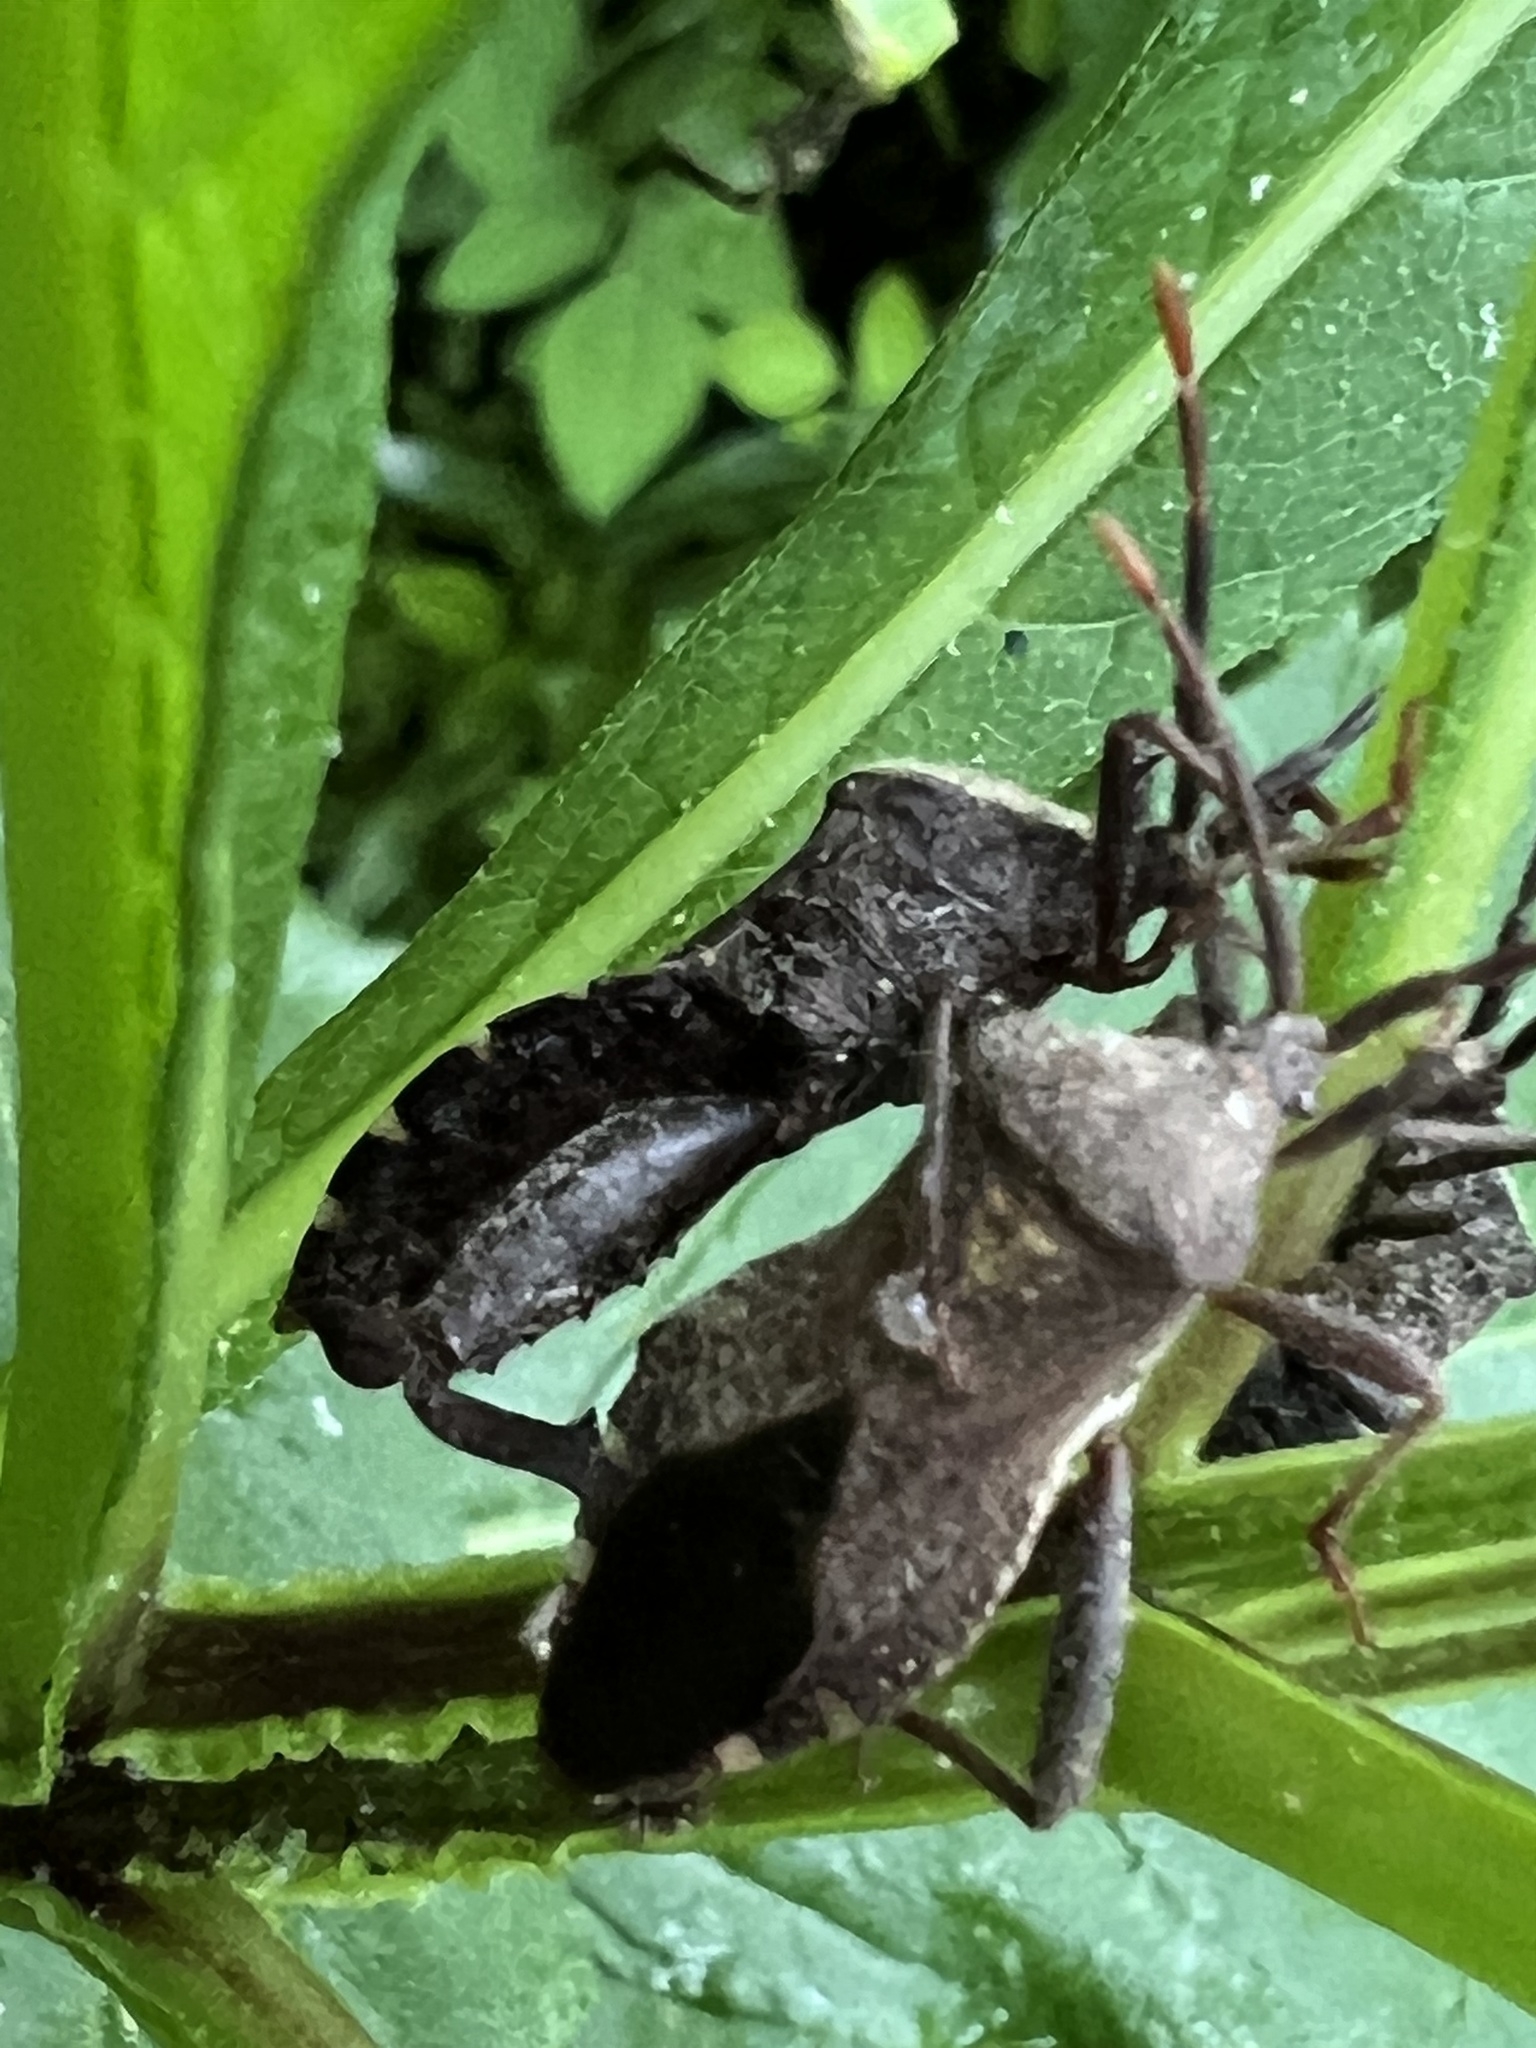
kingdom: Animalia
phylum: Arthropoda
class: Insecta
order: Hemiptera
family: Coreidae
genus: Piezogaster
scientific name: Piezogaster calcarator
